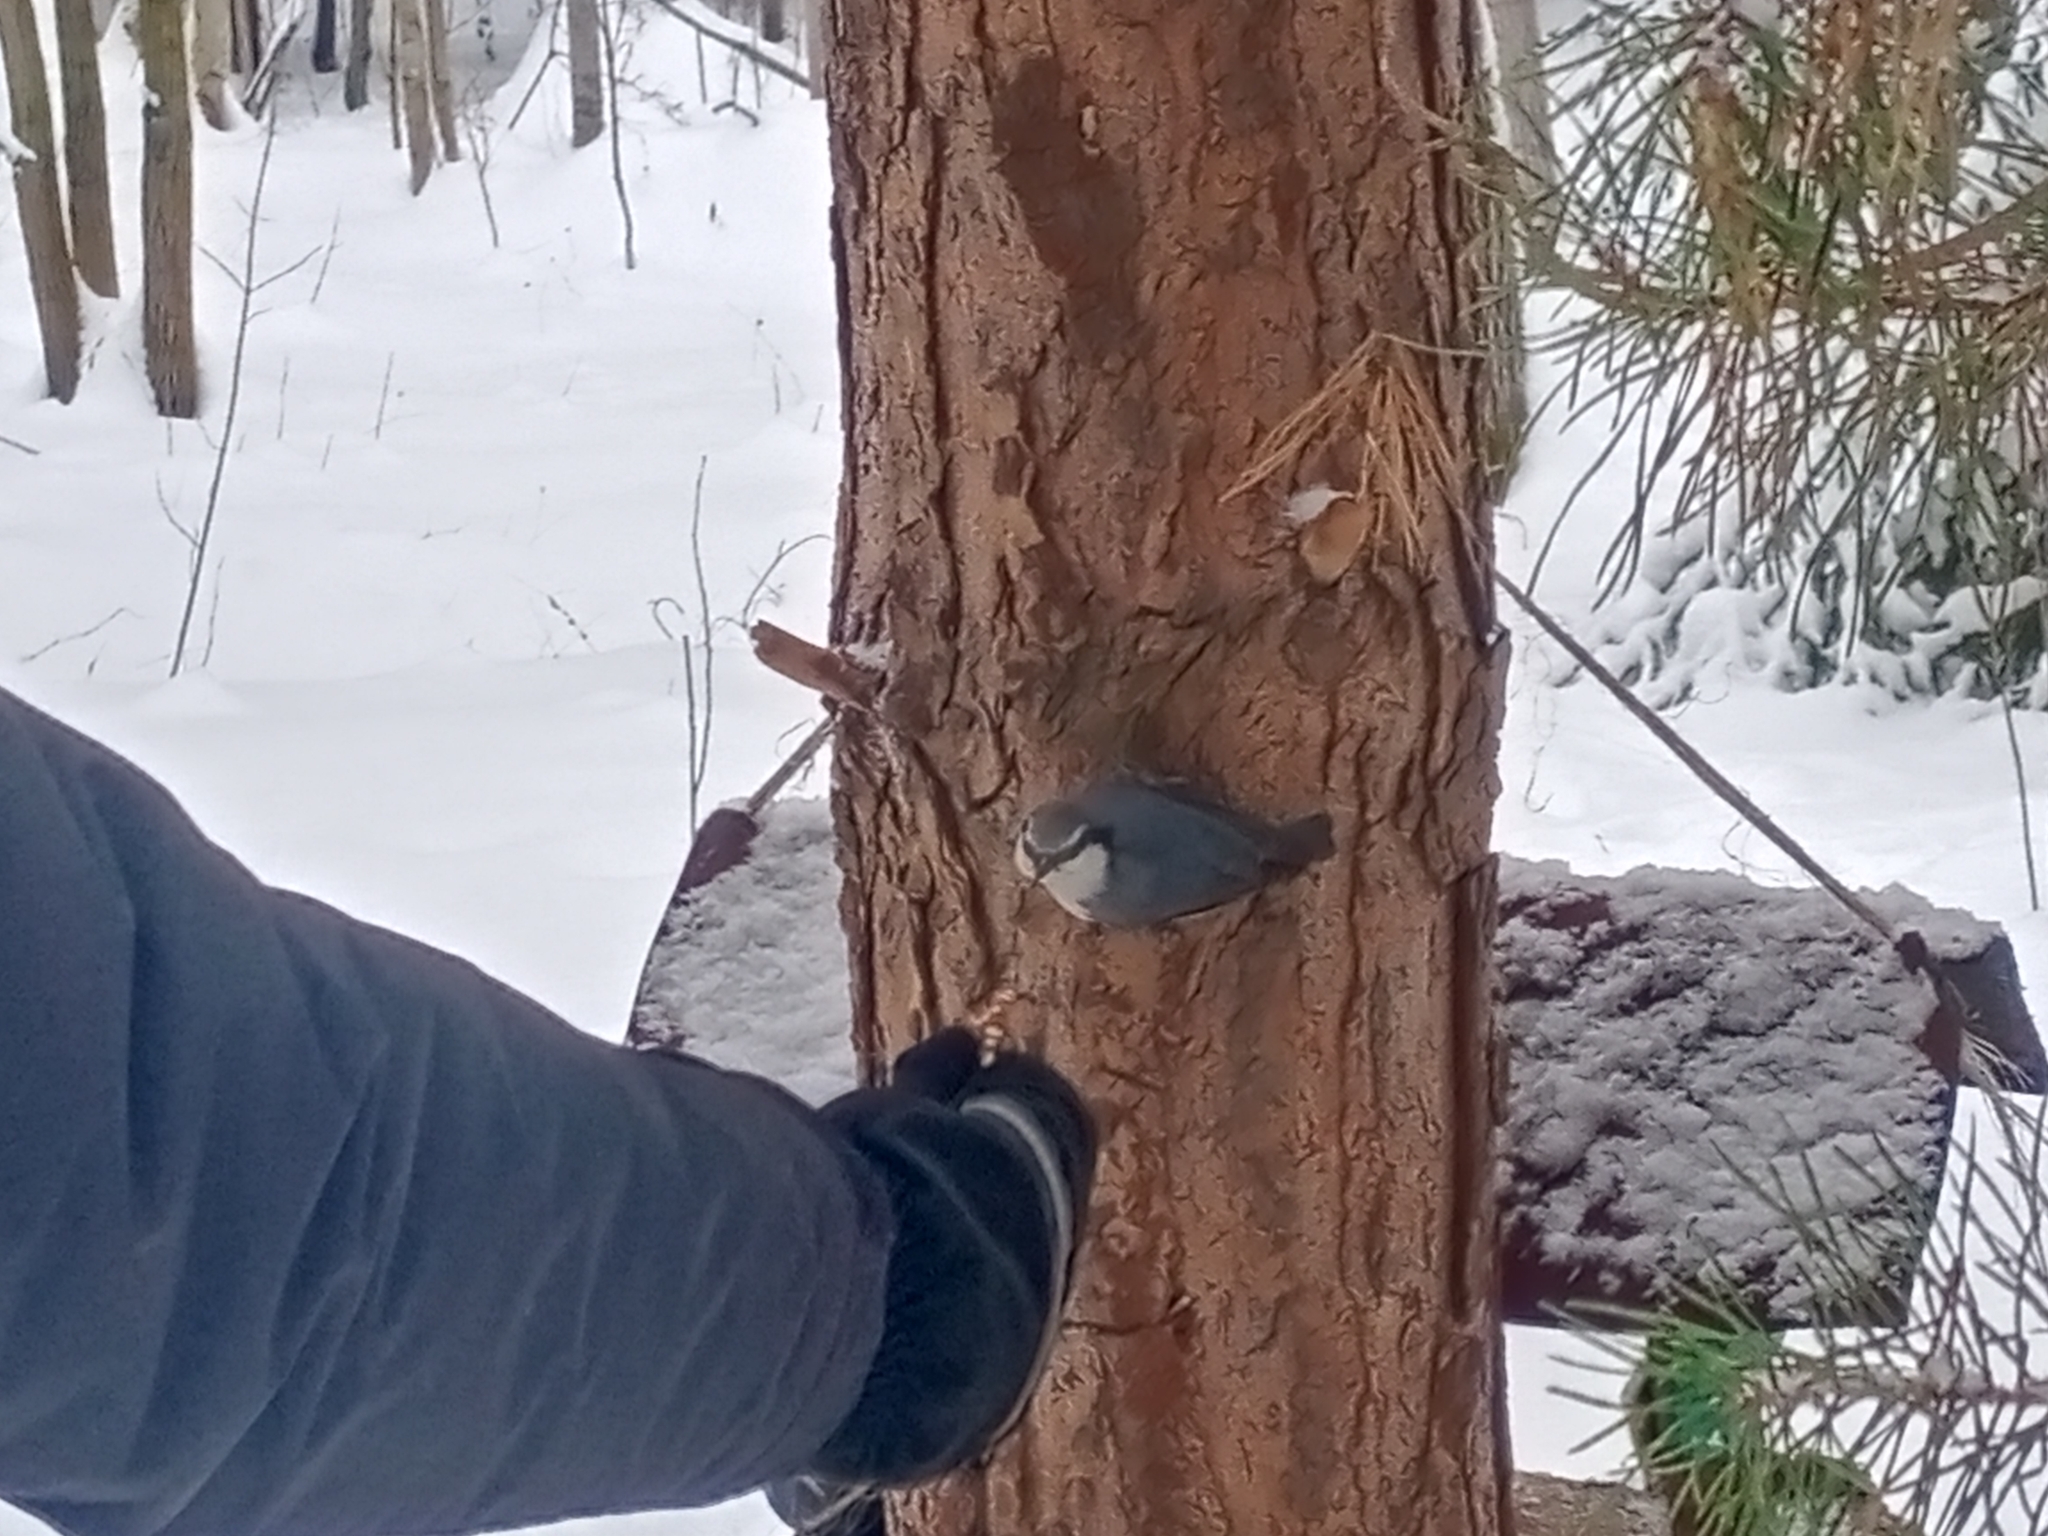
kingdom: Animalia
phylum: Chordata
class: Aves
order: Passeriformes
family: Sittidae
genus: Sitta
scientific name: Sitta europaea
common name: Eurasian nuthatch
